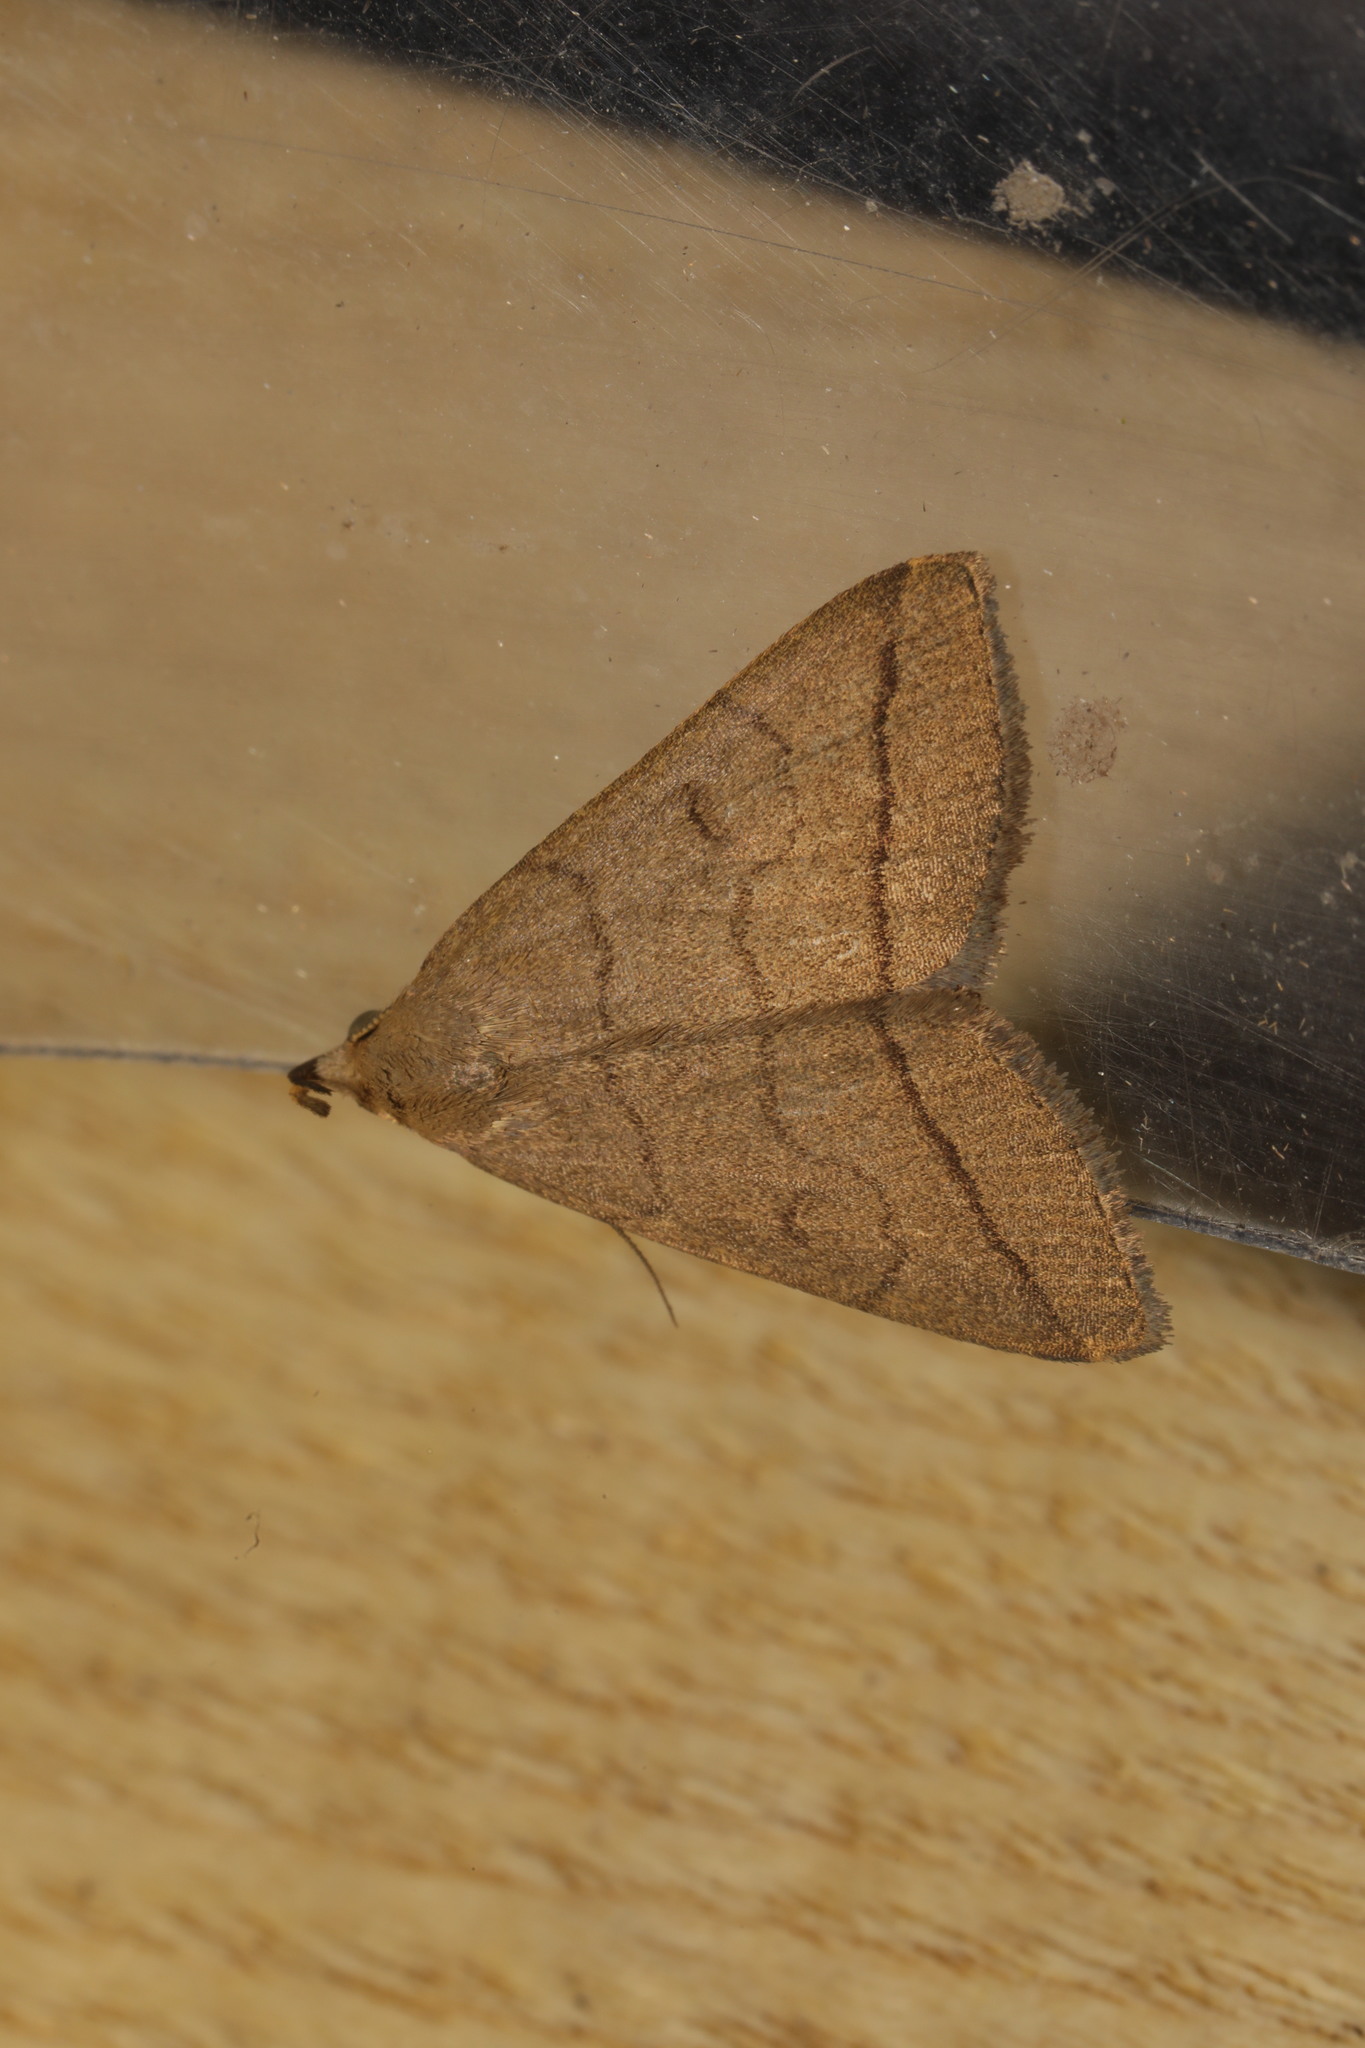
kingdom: Animalia
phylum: Arthropoda
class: Insecta
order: Lepidoptera
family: Erebidae
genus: Herminia
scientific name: Herminia tarsipennalis
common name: Fan-foot
